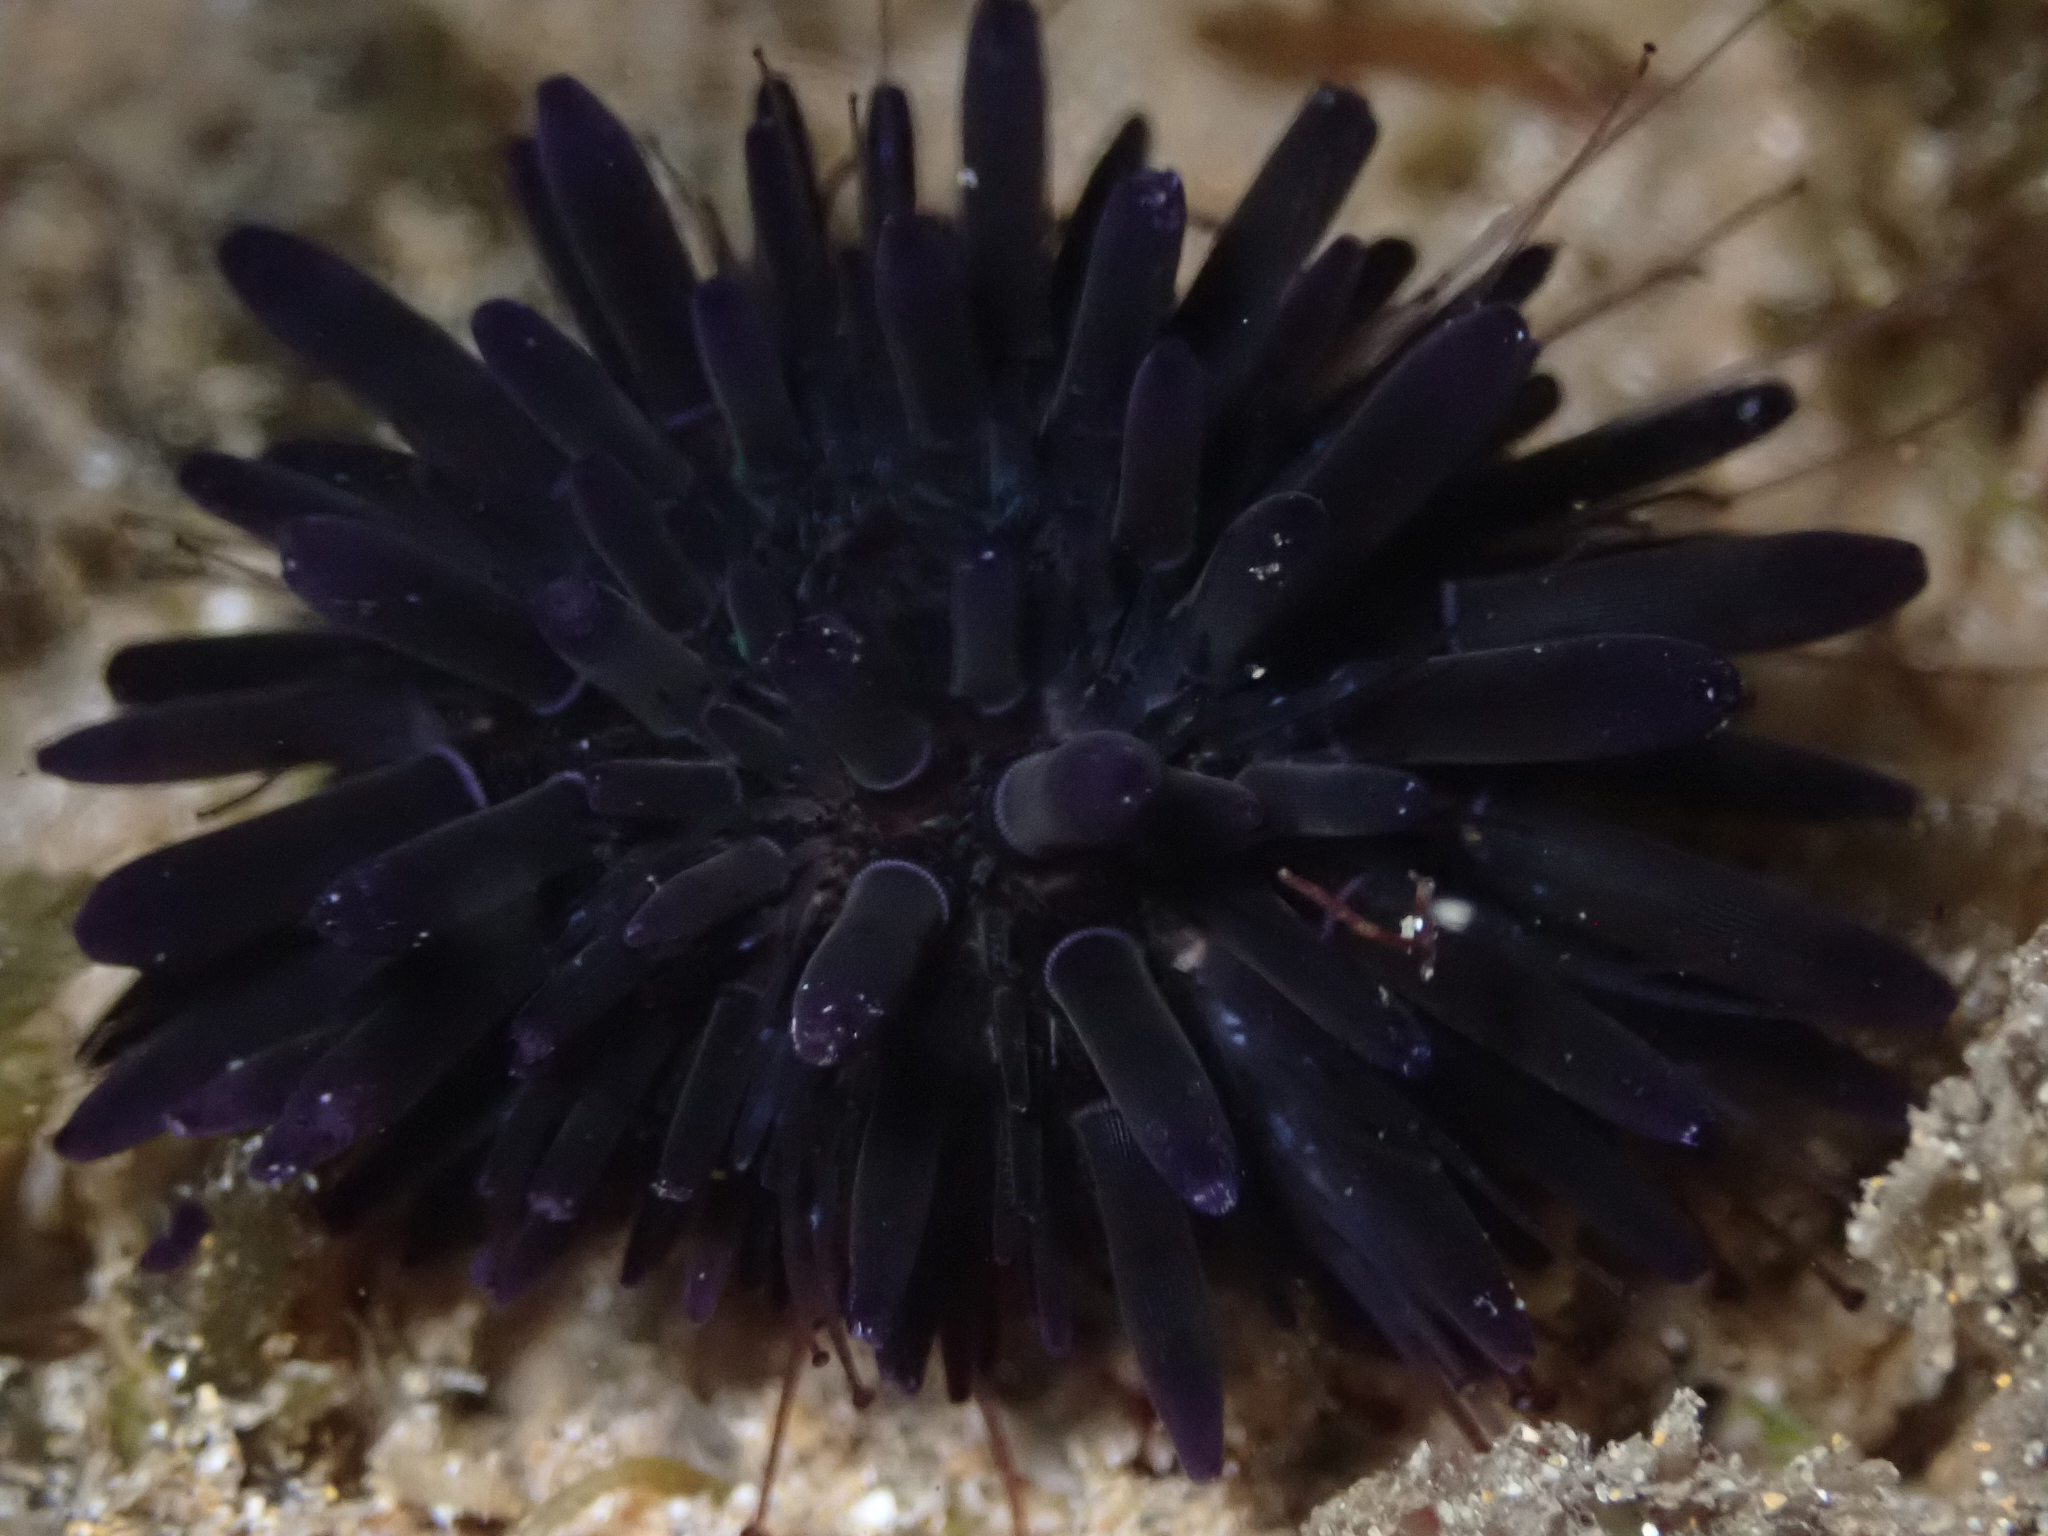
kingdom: Animalia
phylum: Echinodermata
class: Echinoidea
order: Camarodonta
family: Echinometridae
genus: Echinometra
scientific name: Echinometra oblonga
